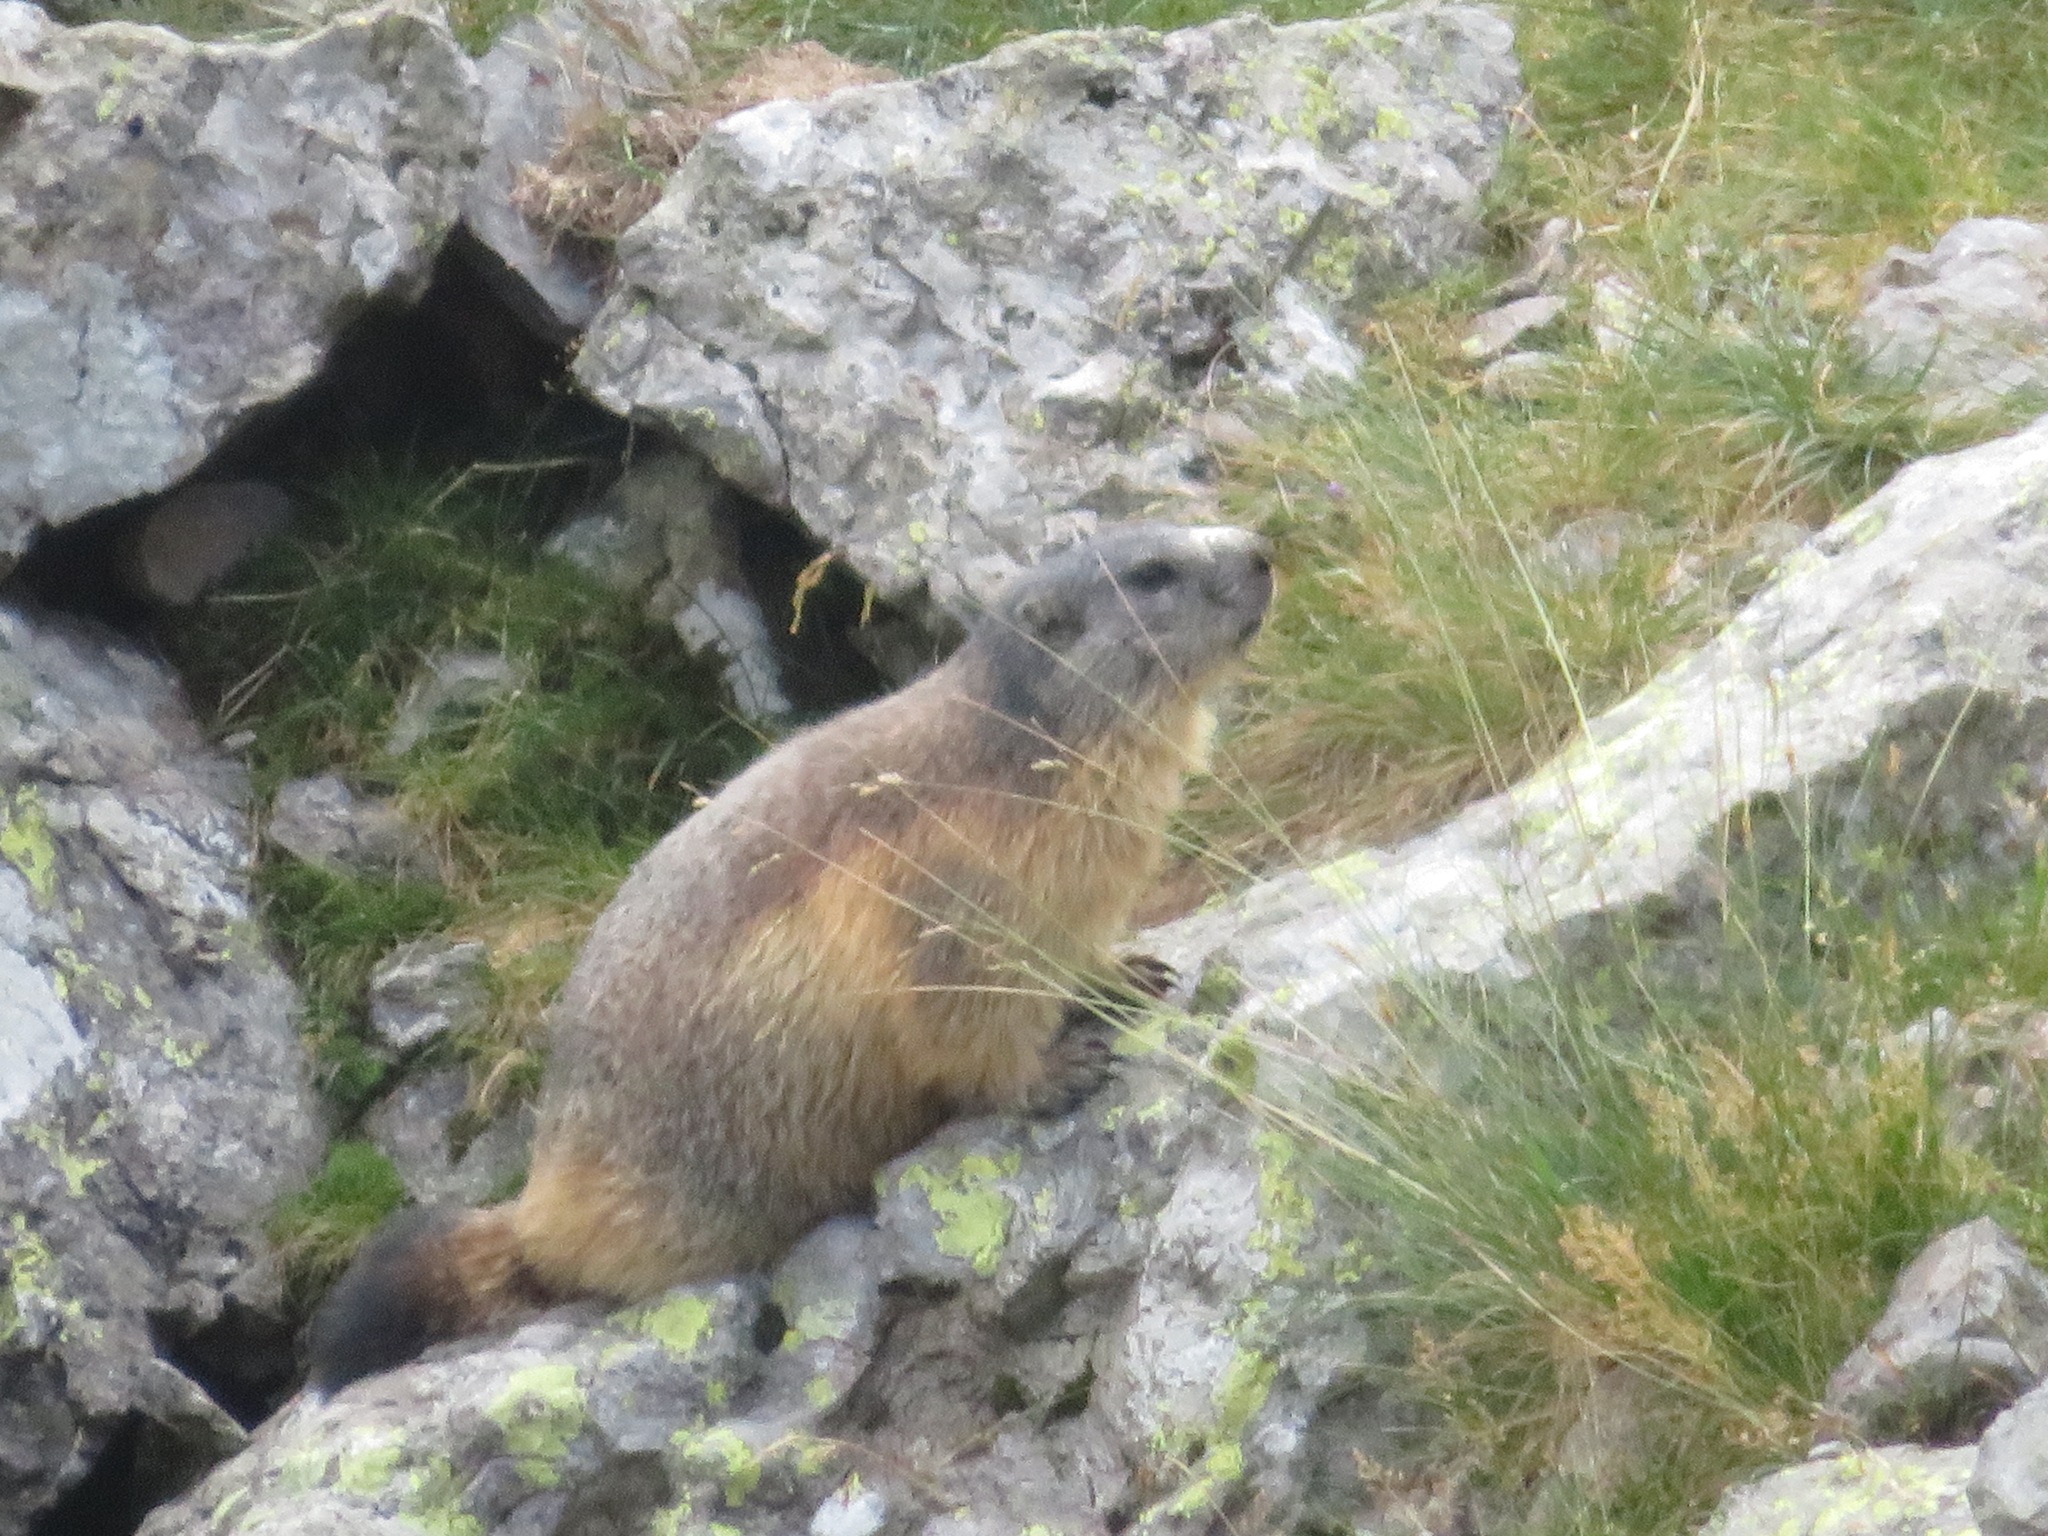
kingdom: Animalia
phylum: Chordata
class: Mammalia
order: Rodentia
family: Sciuridae
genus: Marmota
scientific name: Marmota marmota
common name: Alpine marmot
